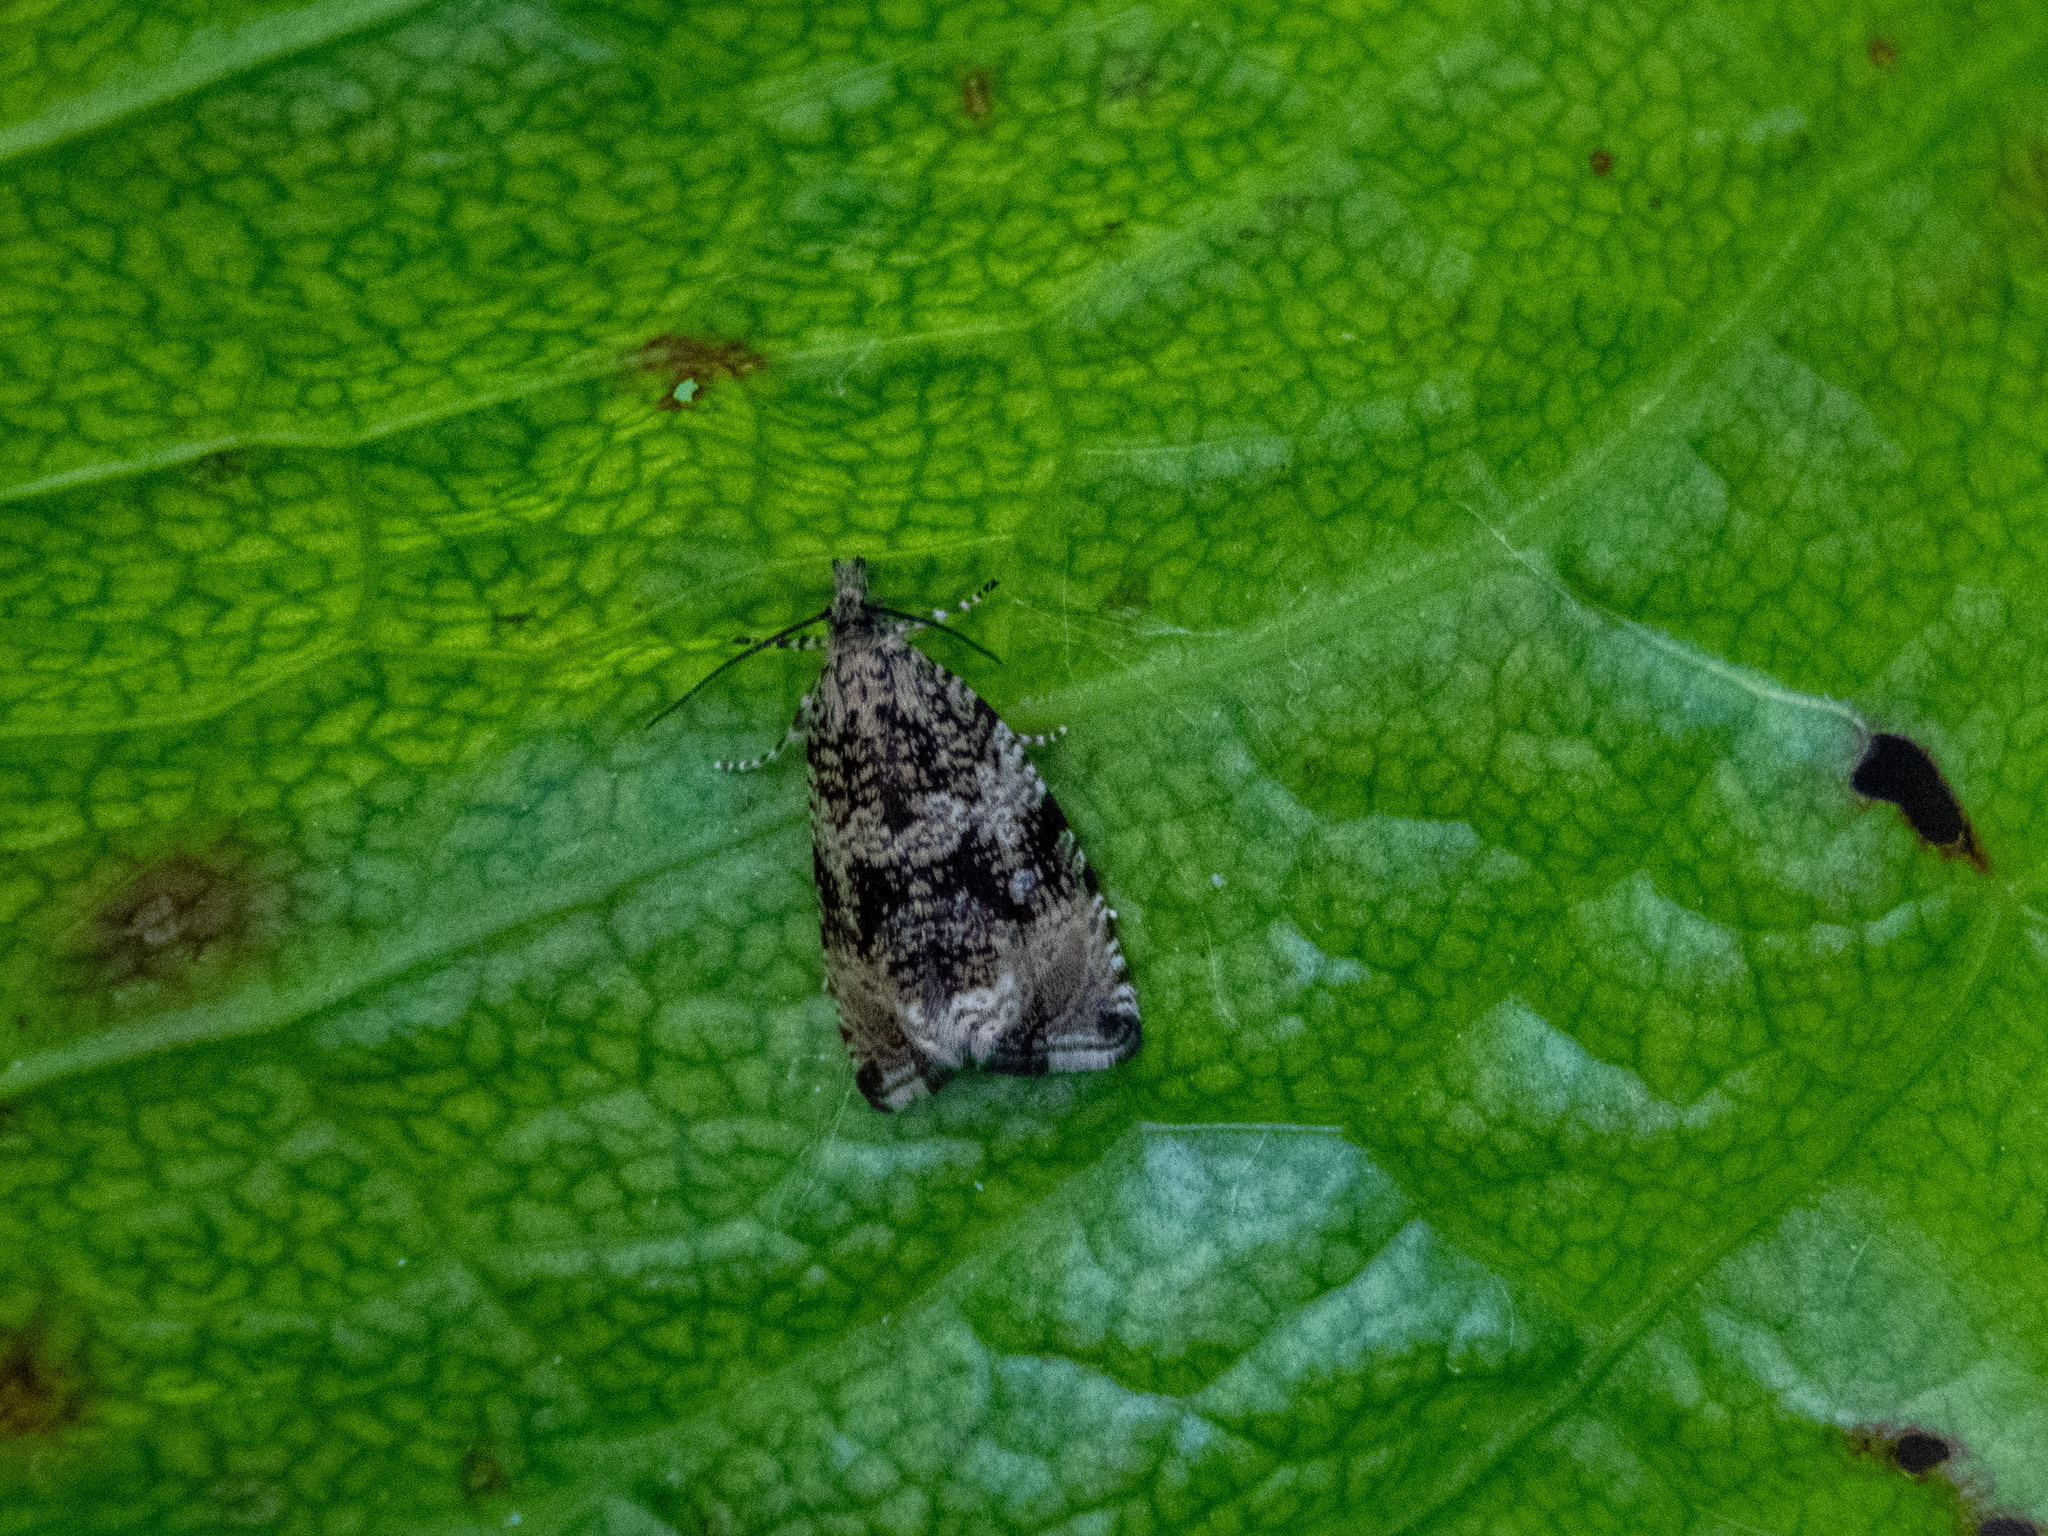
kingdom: Animalia
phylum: Arthropoda
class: Insecta
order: Lepidoptera
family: Tortricidae
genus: Syricoris
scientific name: Syricoris lacunana
